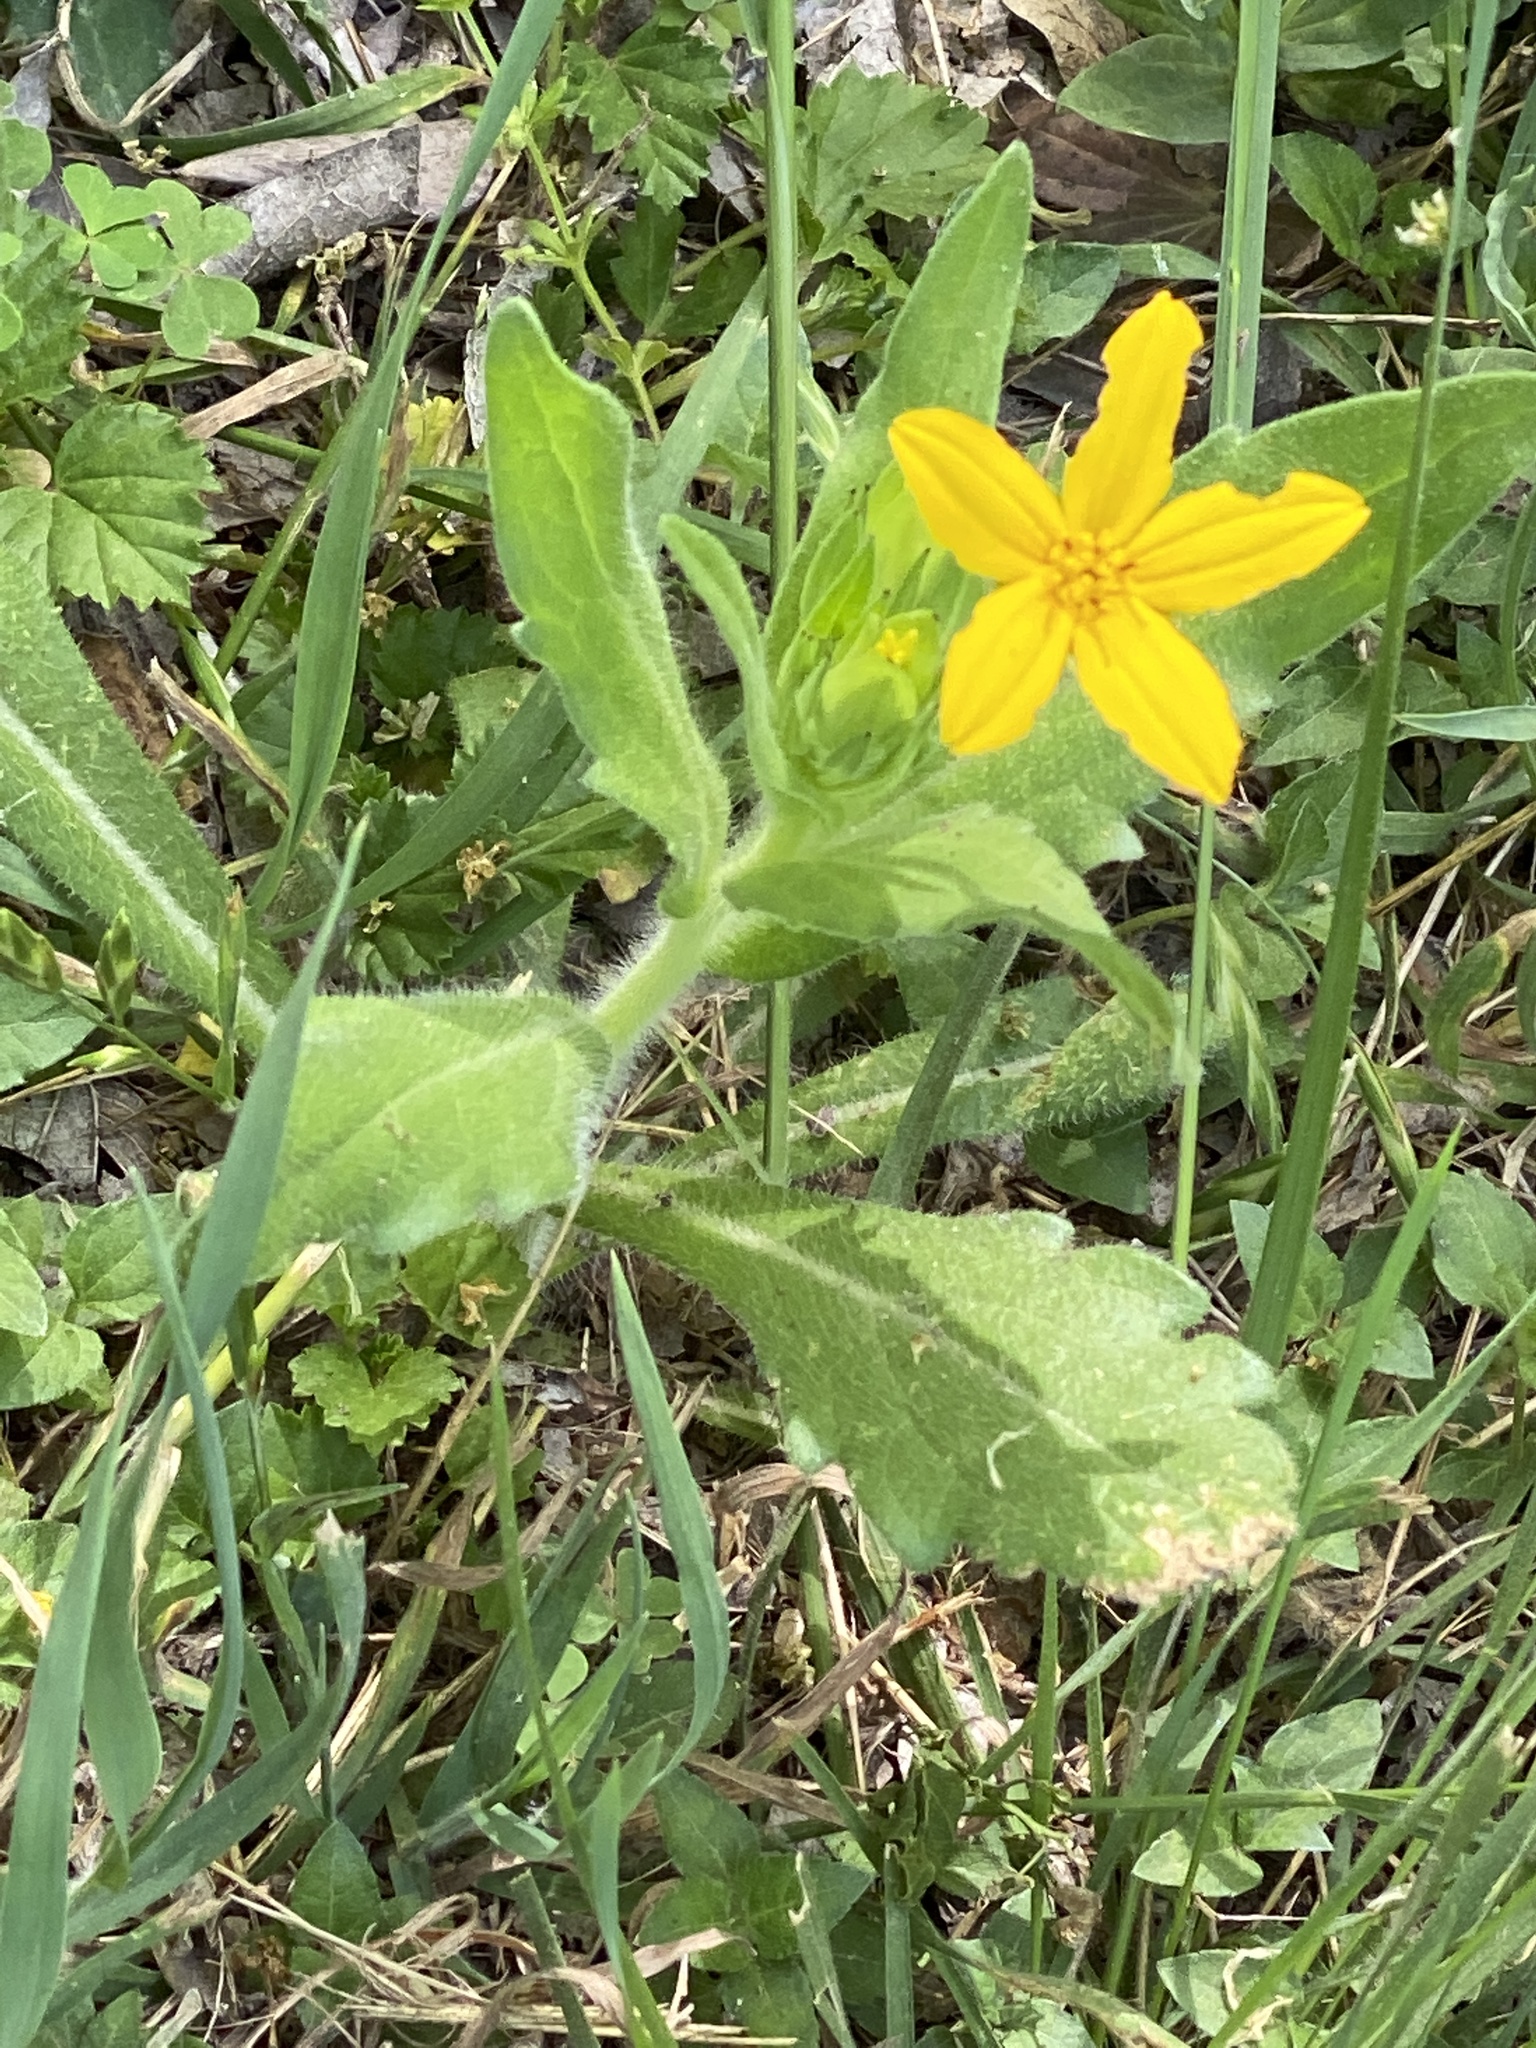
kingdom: Plantae
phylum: Tracheophyta
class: Magnoliopsida
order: Asterales
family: Asteraceae
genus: Lindheimera
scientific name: Lindheimera texana
